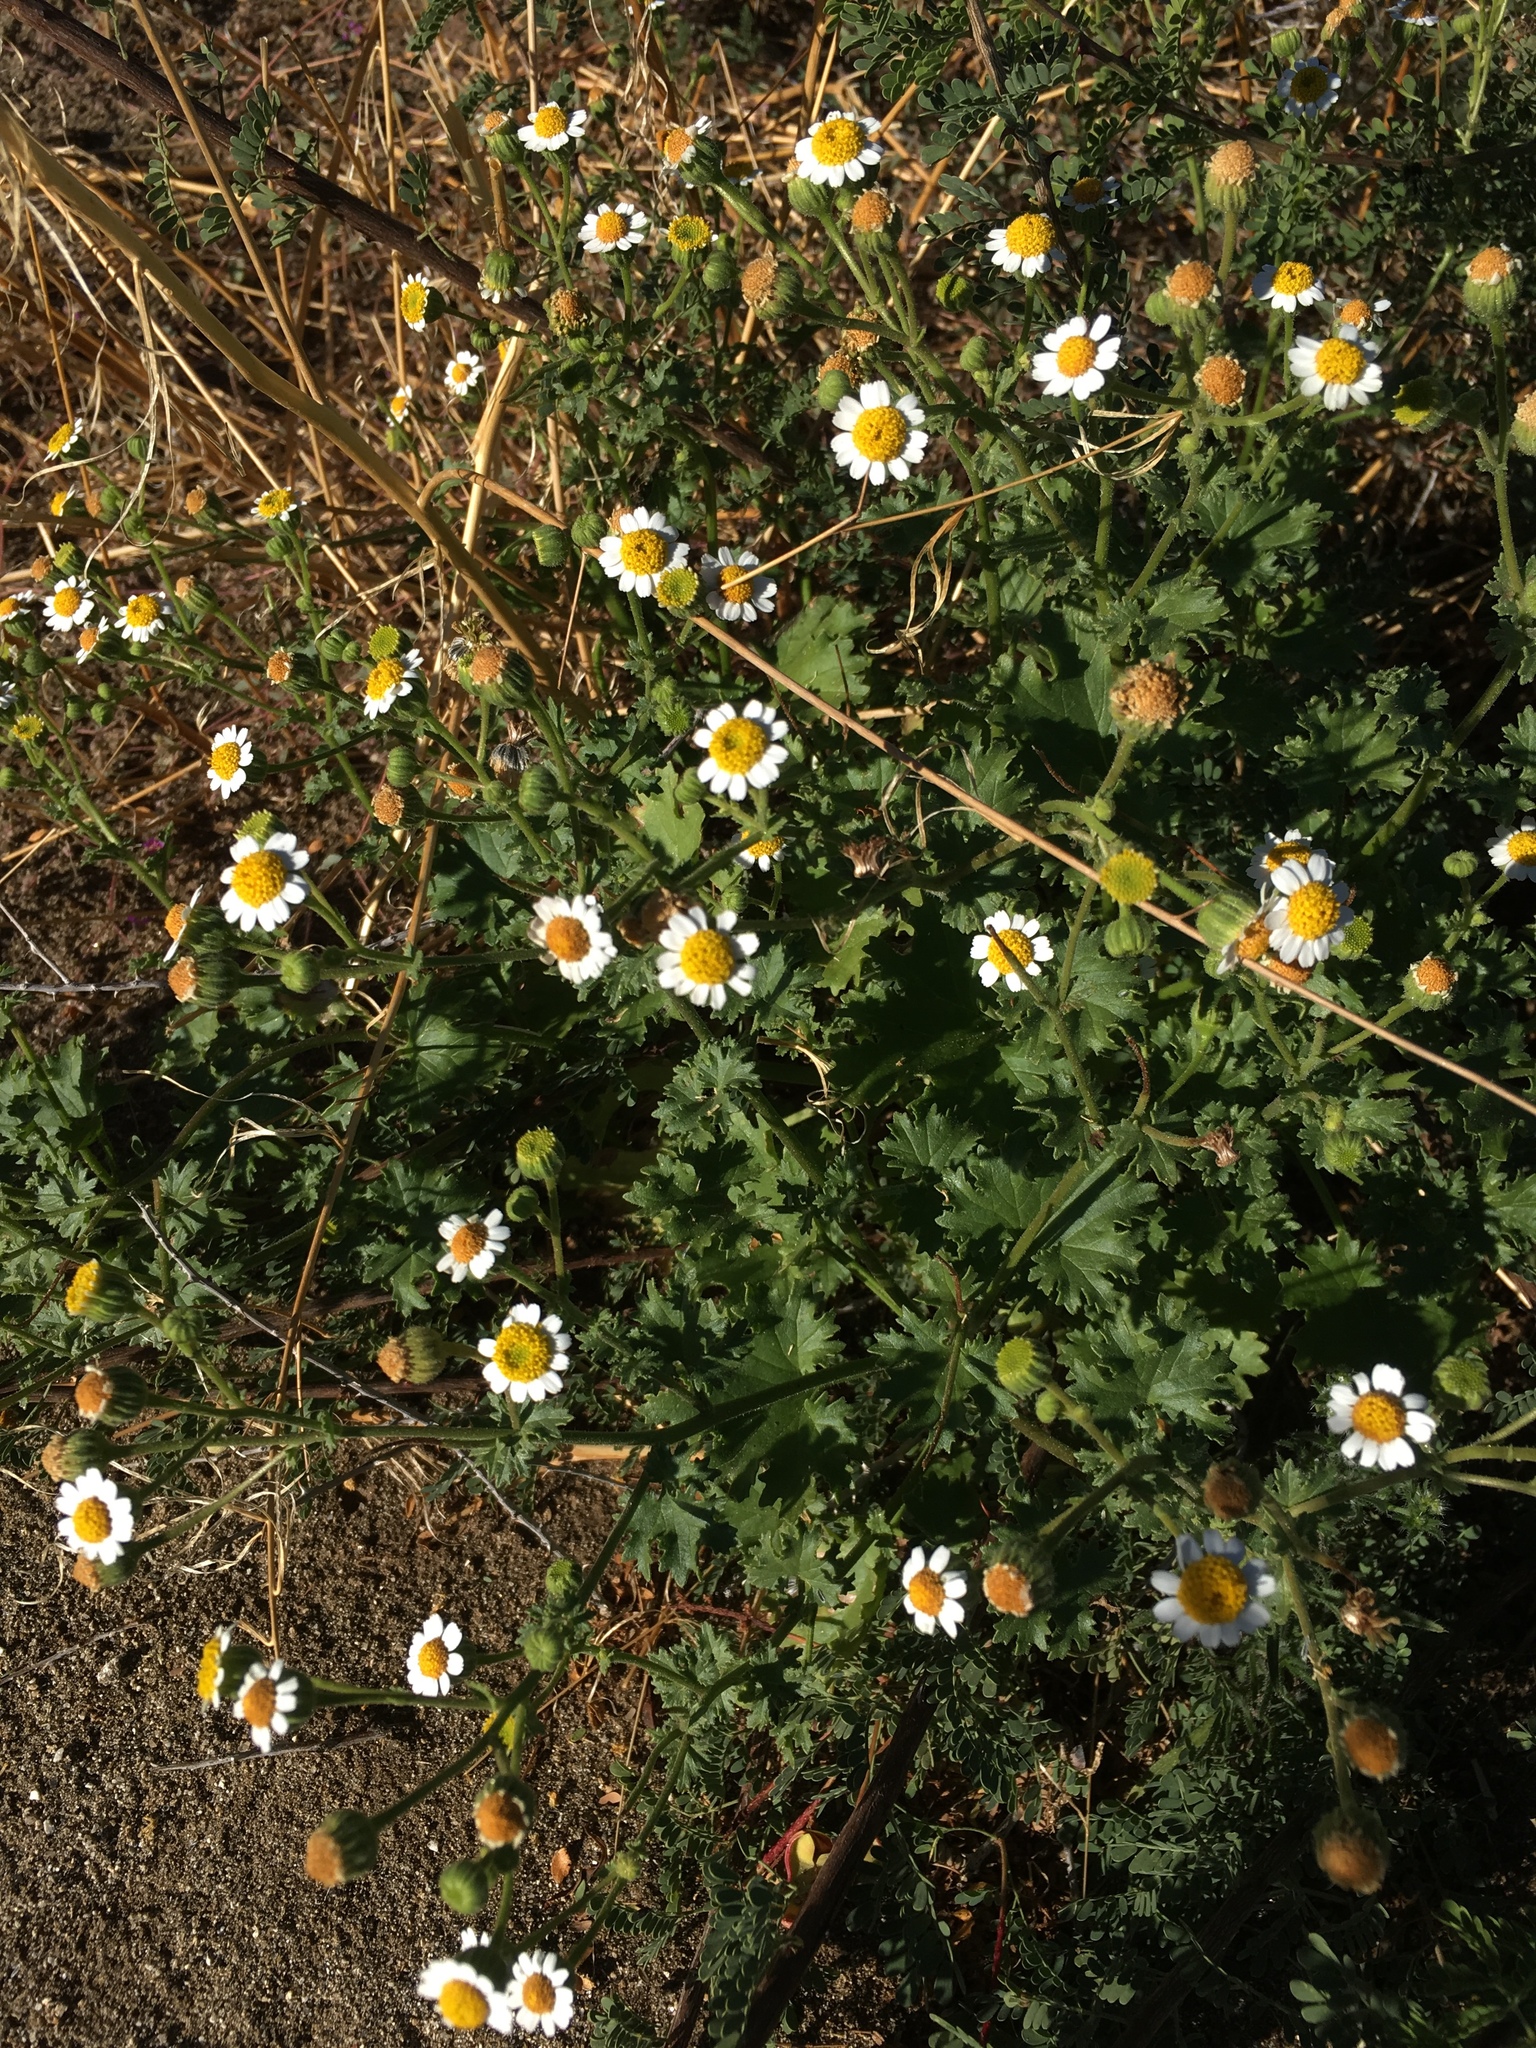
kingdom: Plantae
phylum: Tracheophyta
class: Magnoliopsida
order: Asterales
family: Asteraceae
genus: Laphamia
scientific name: Laphamia emoryi
